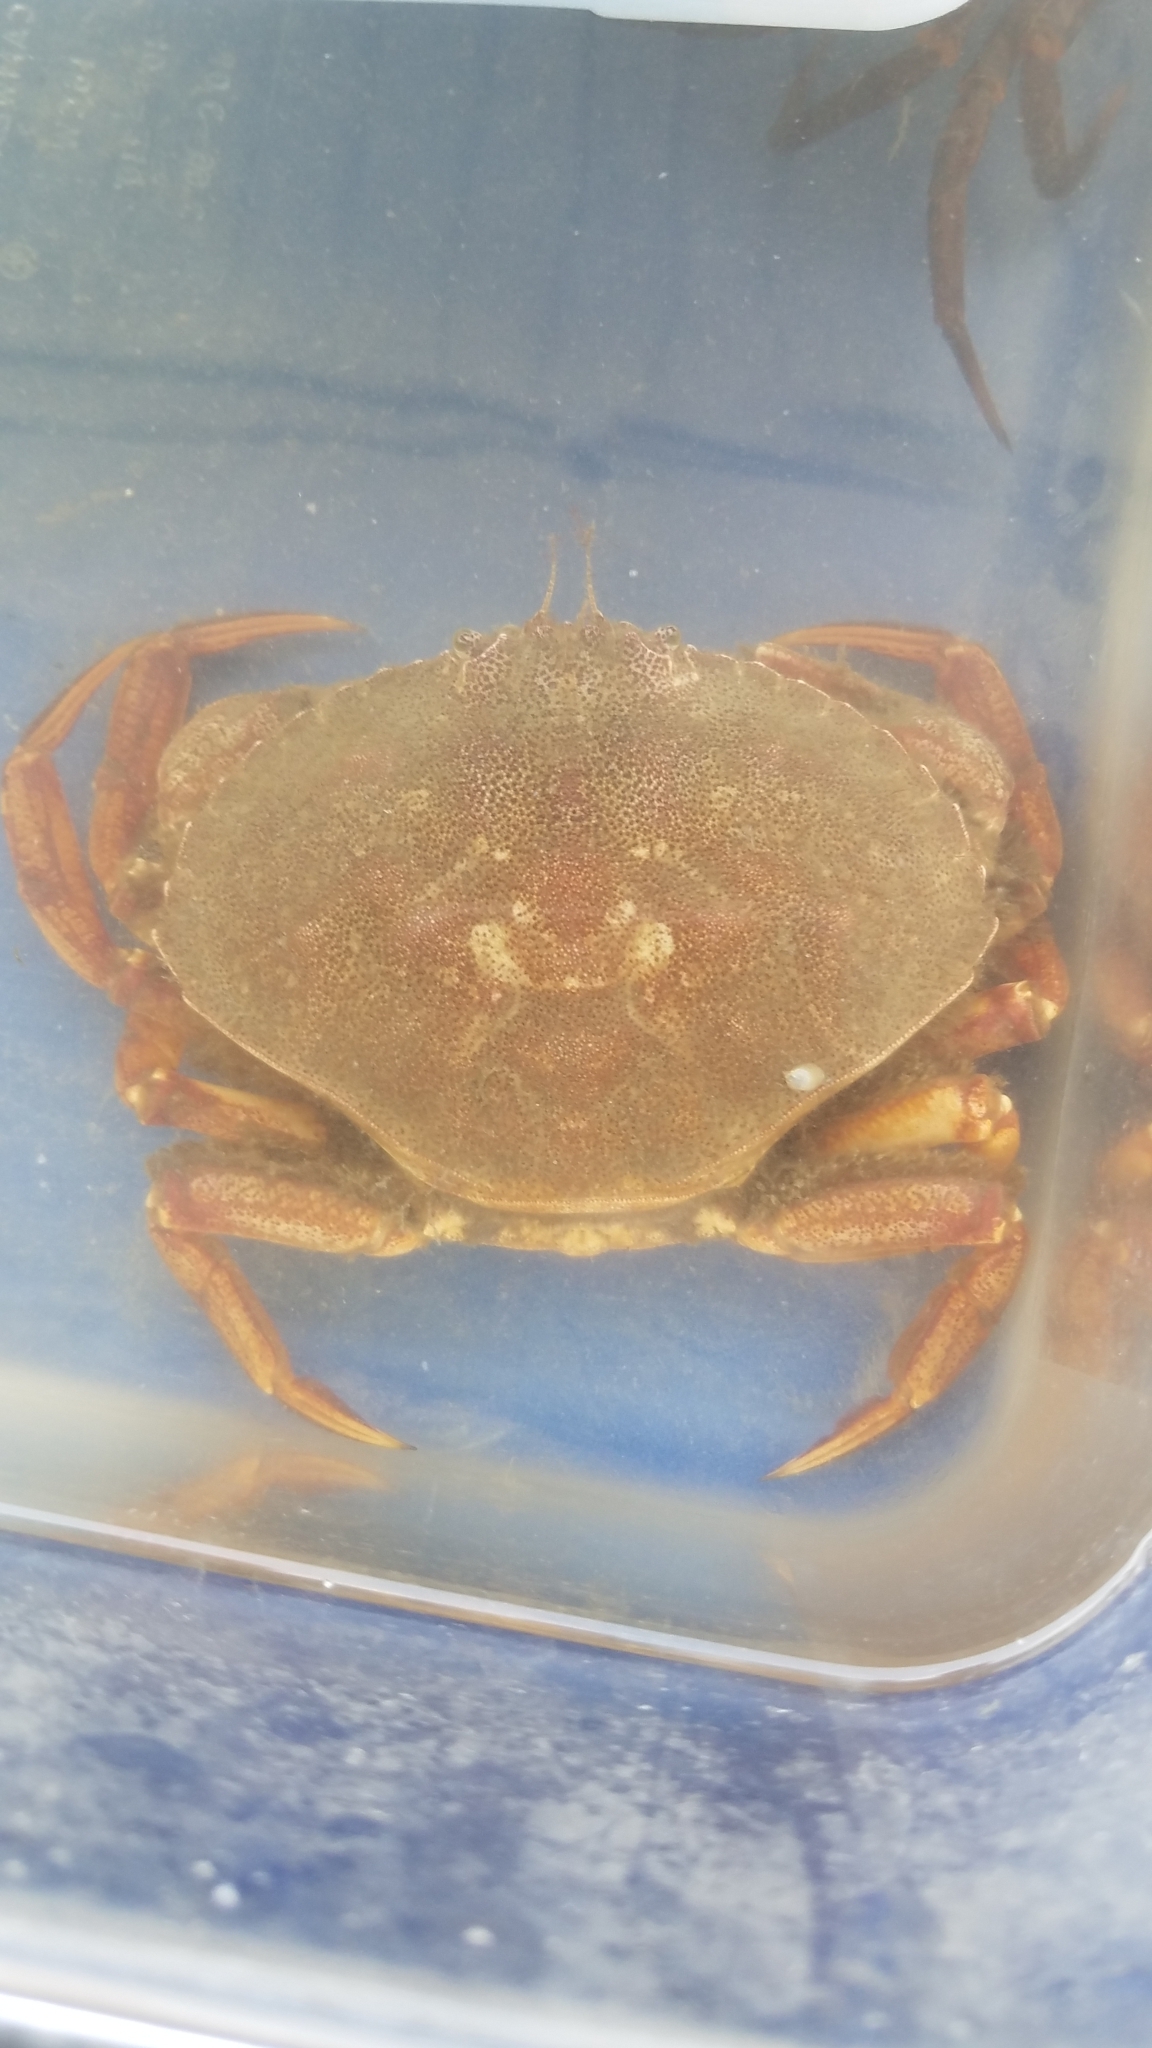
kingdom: Animalia
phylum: Arthropoda
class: Malacostraca
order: Decapoda
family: Cancridae
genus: Cancer
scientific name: Cancer irroratus
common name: Atlantic rock crab
